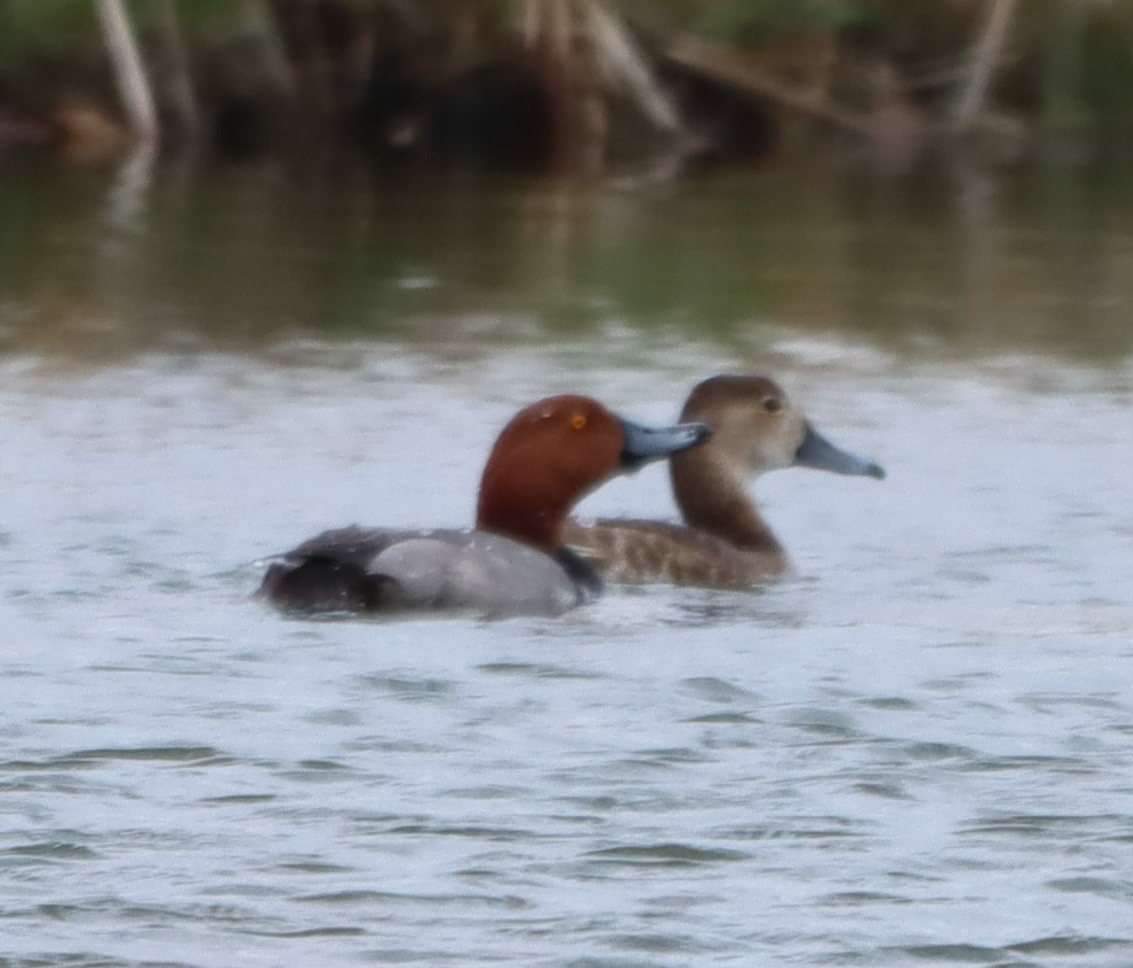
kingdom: Animalia
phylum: Chordata
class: Aves
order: Anseriformes
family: Anatidae
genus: Aythya
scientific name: Aythya americana
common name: Redhead
